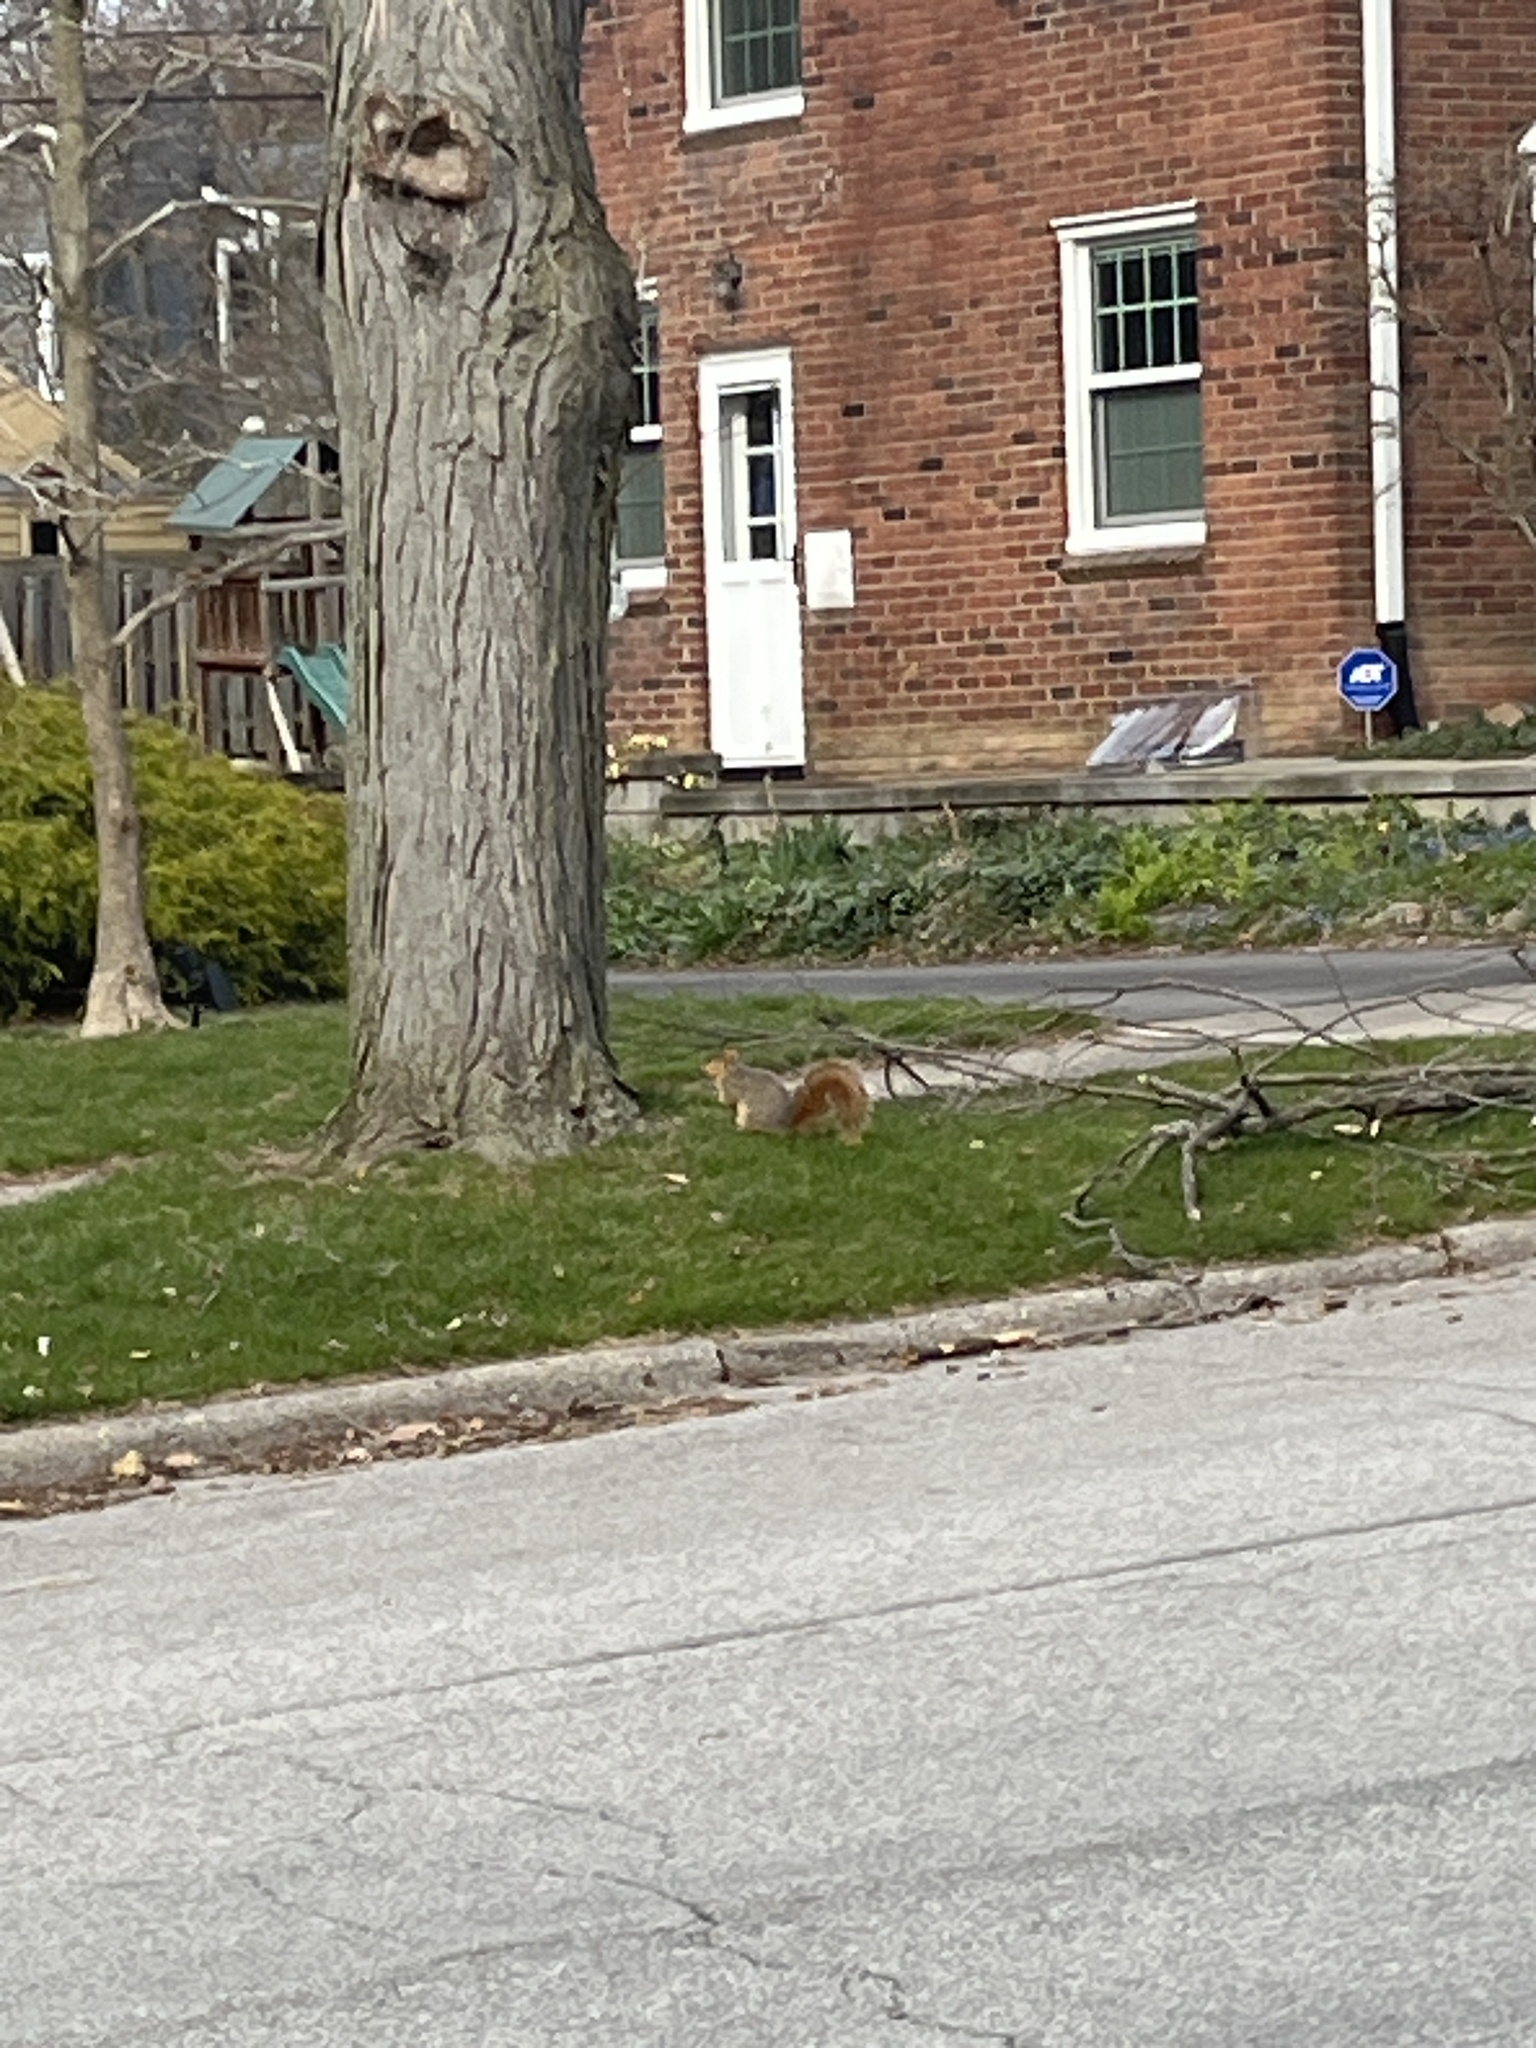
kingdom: Animalia
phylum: Chordata
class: Mammalia
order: Rodentia
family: Sciuridae
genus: Sciurus
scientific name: Sciurus niger
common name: Fox squirrel
